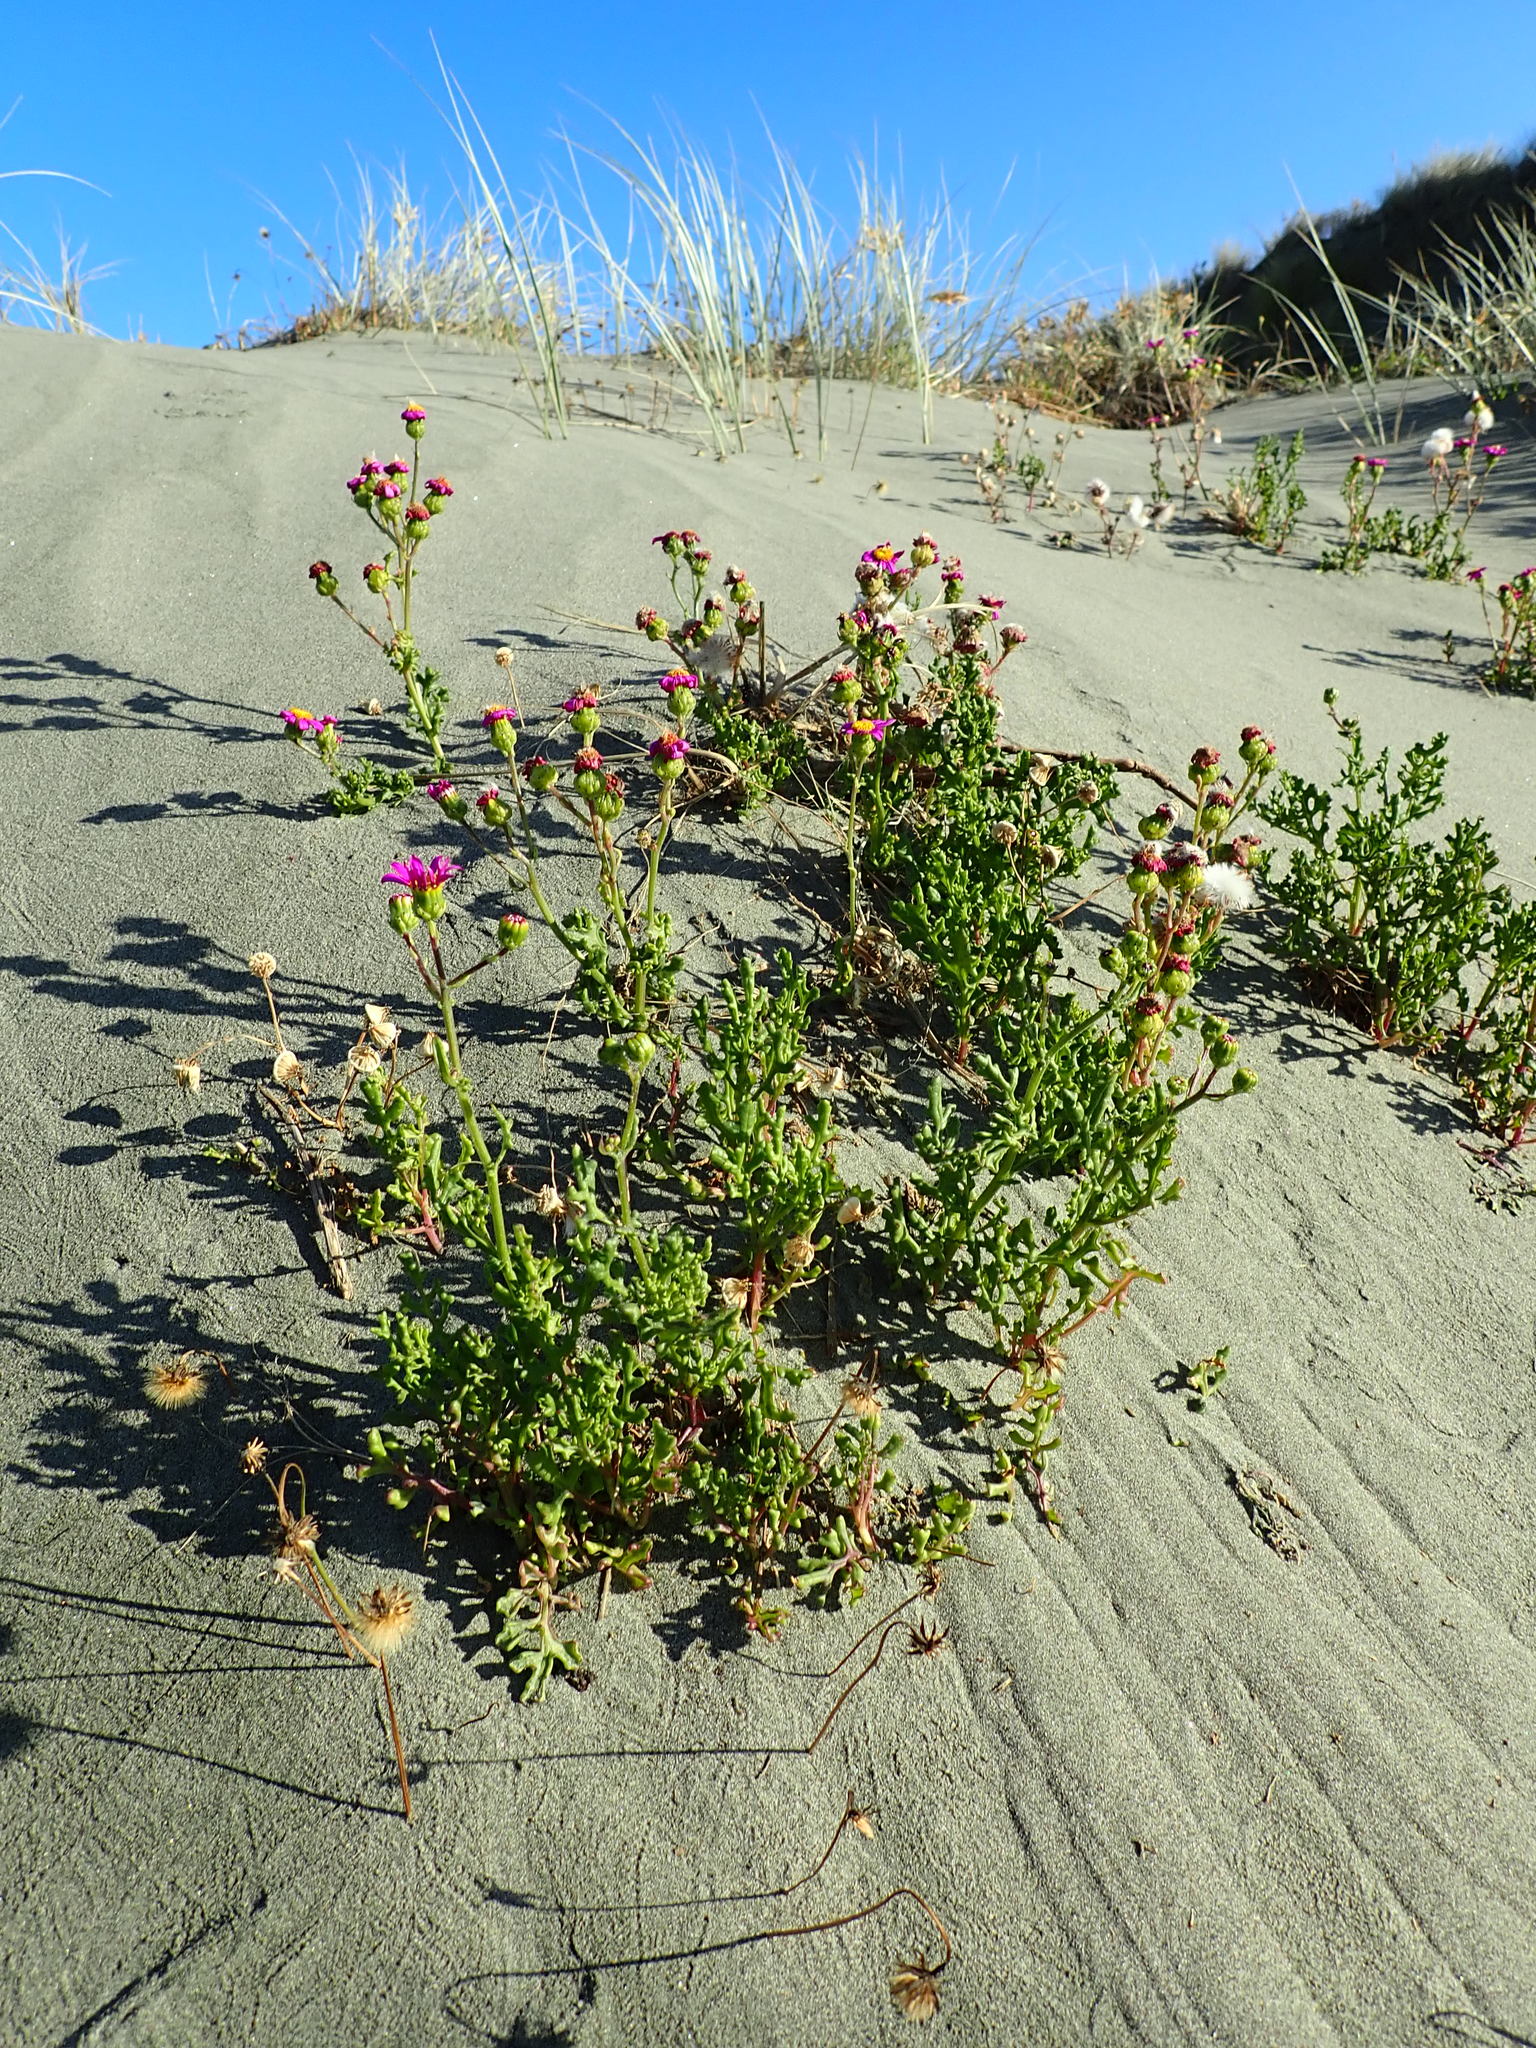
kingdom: Plantae
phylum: Tracheophyta
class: Magnoliopsida
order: Asterales
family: Asteraceae
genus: Senecio
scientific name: Senecio elegans
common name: Purple groundsel
